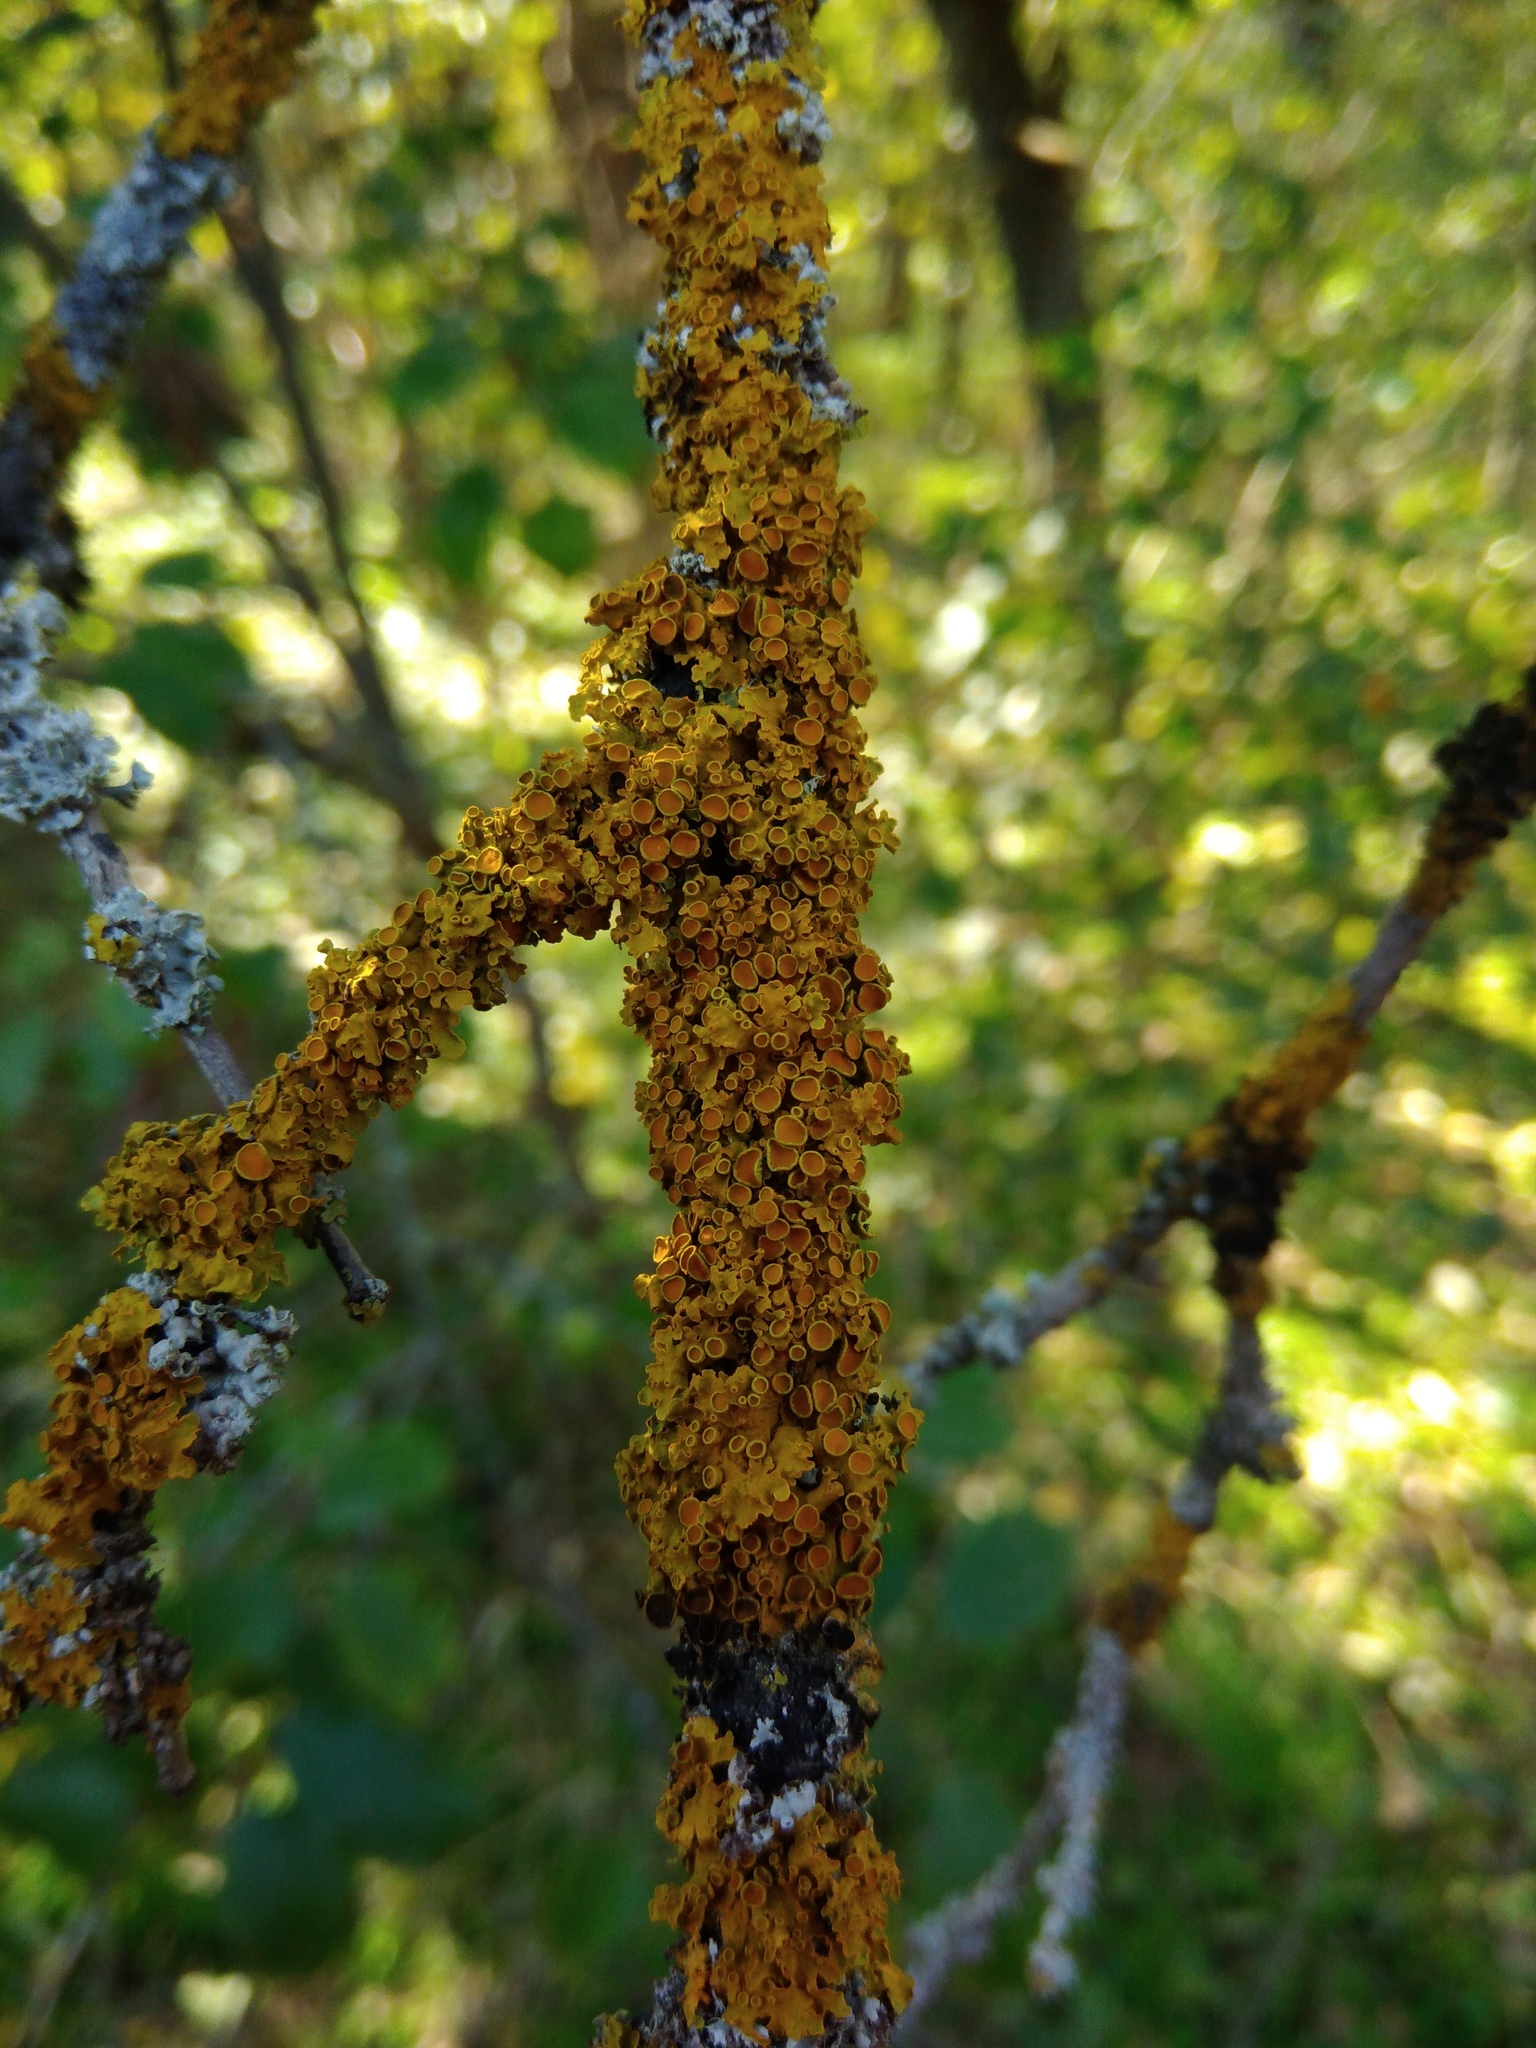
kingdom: Fungi
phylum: Ascomycota
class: Lecanoromycetes
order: Teloschistales
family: Teloschistaceae
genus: Xanthoria
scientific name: Xanthoria parietina
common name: Common orange lichen
